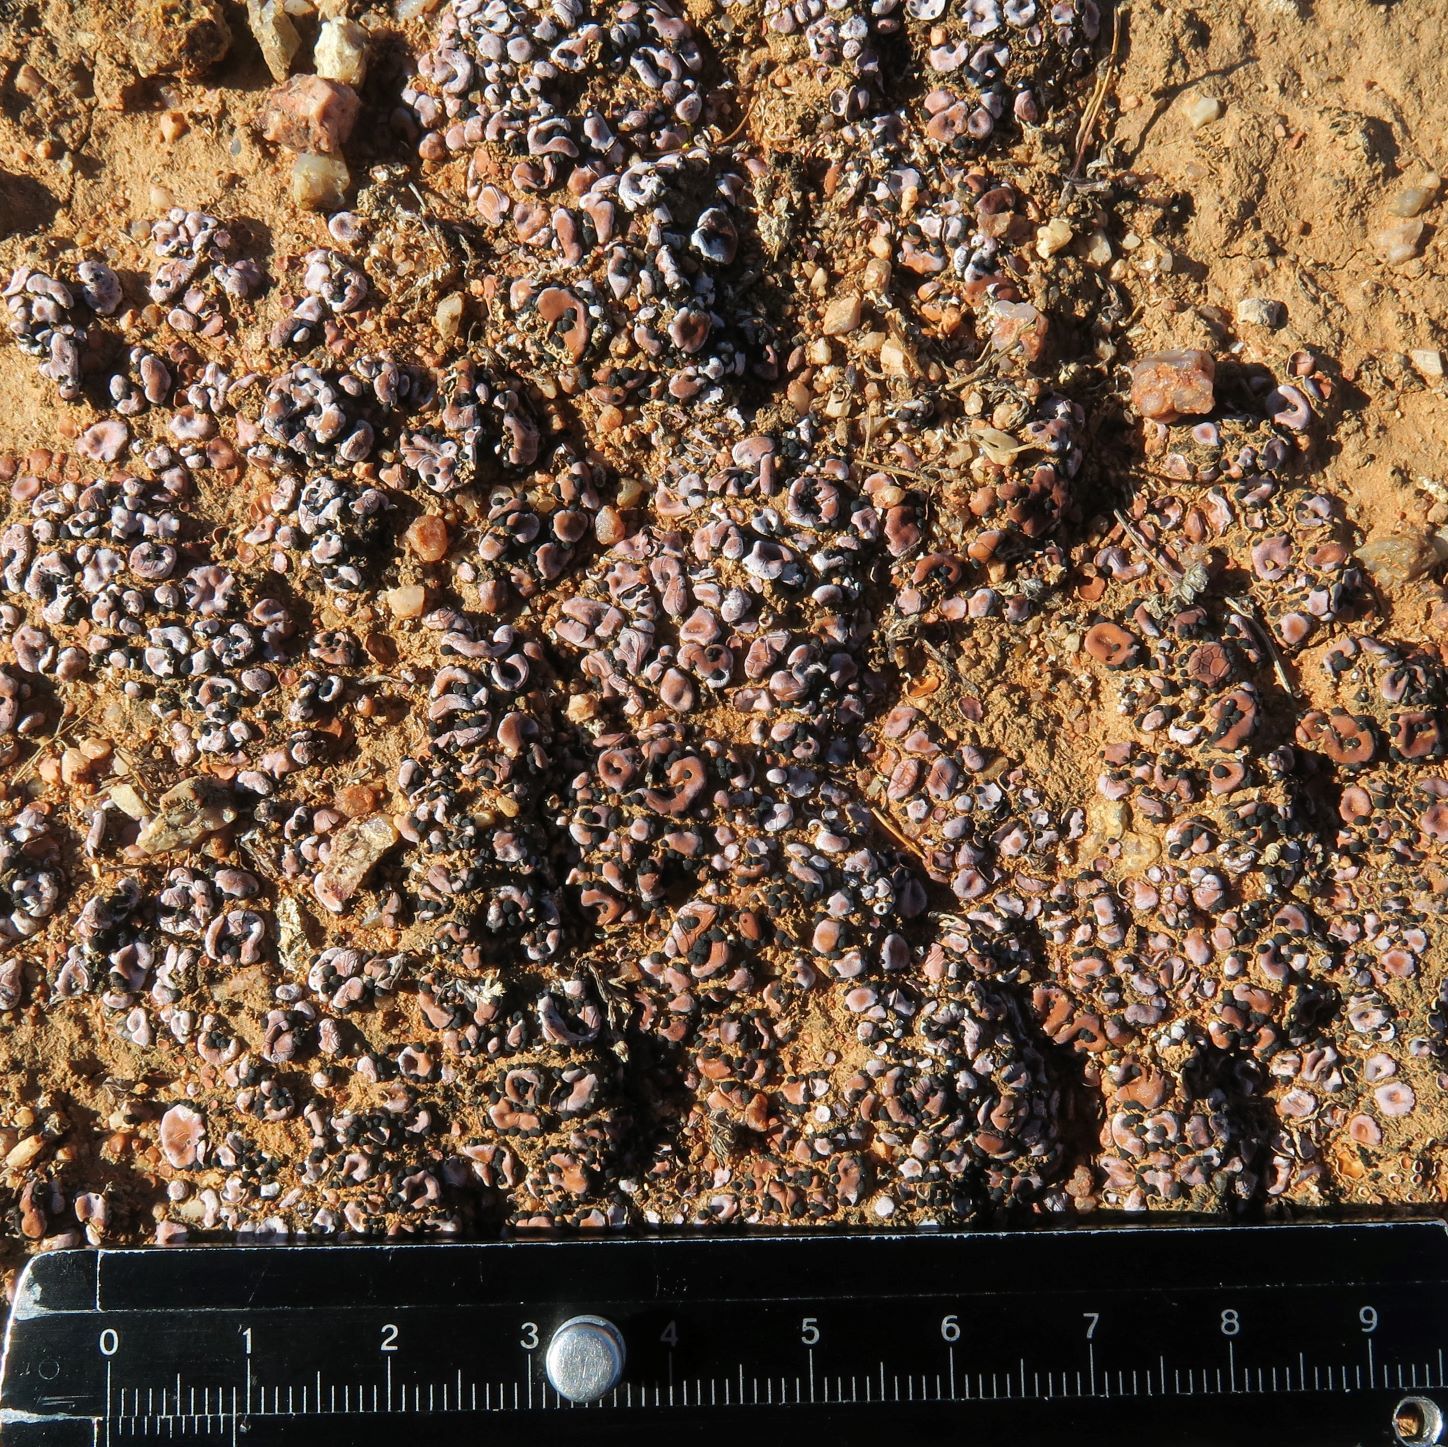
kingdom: Fungi
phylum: Ascomycota
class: Lecanoromycetes
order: Lecanorales
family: Psoraceae
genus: Psora
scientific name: Psora crenata
